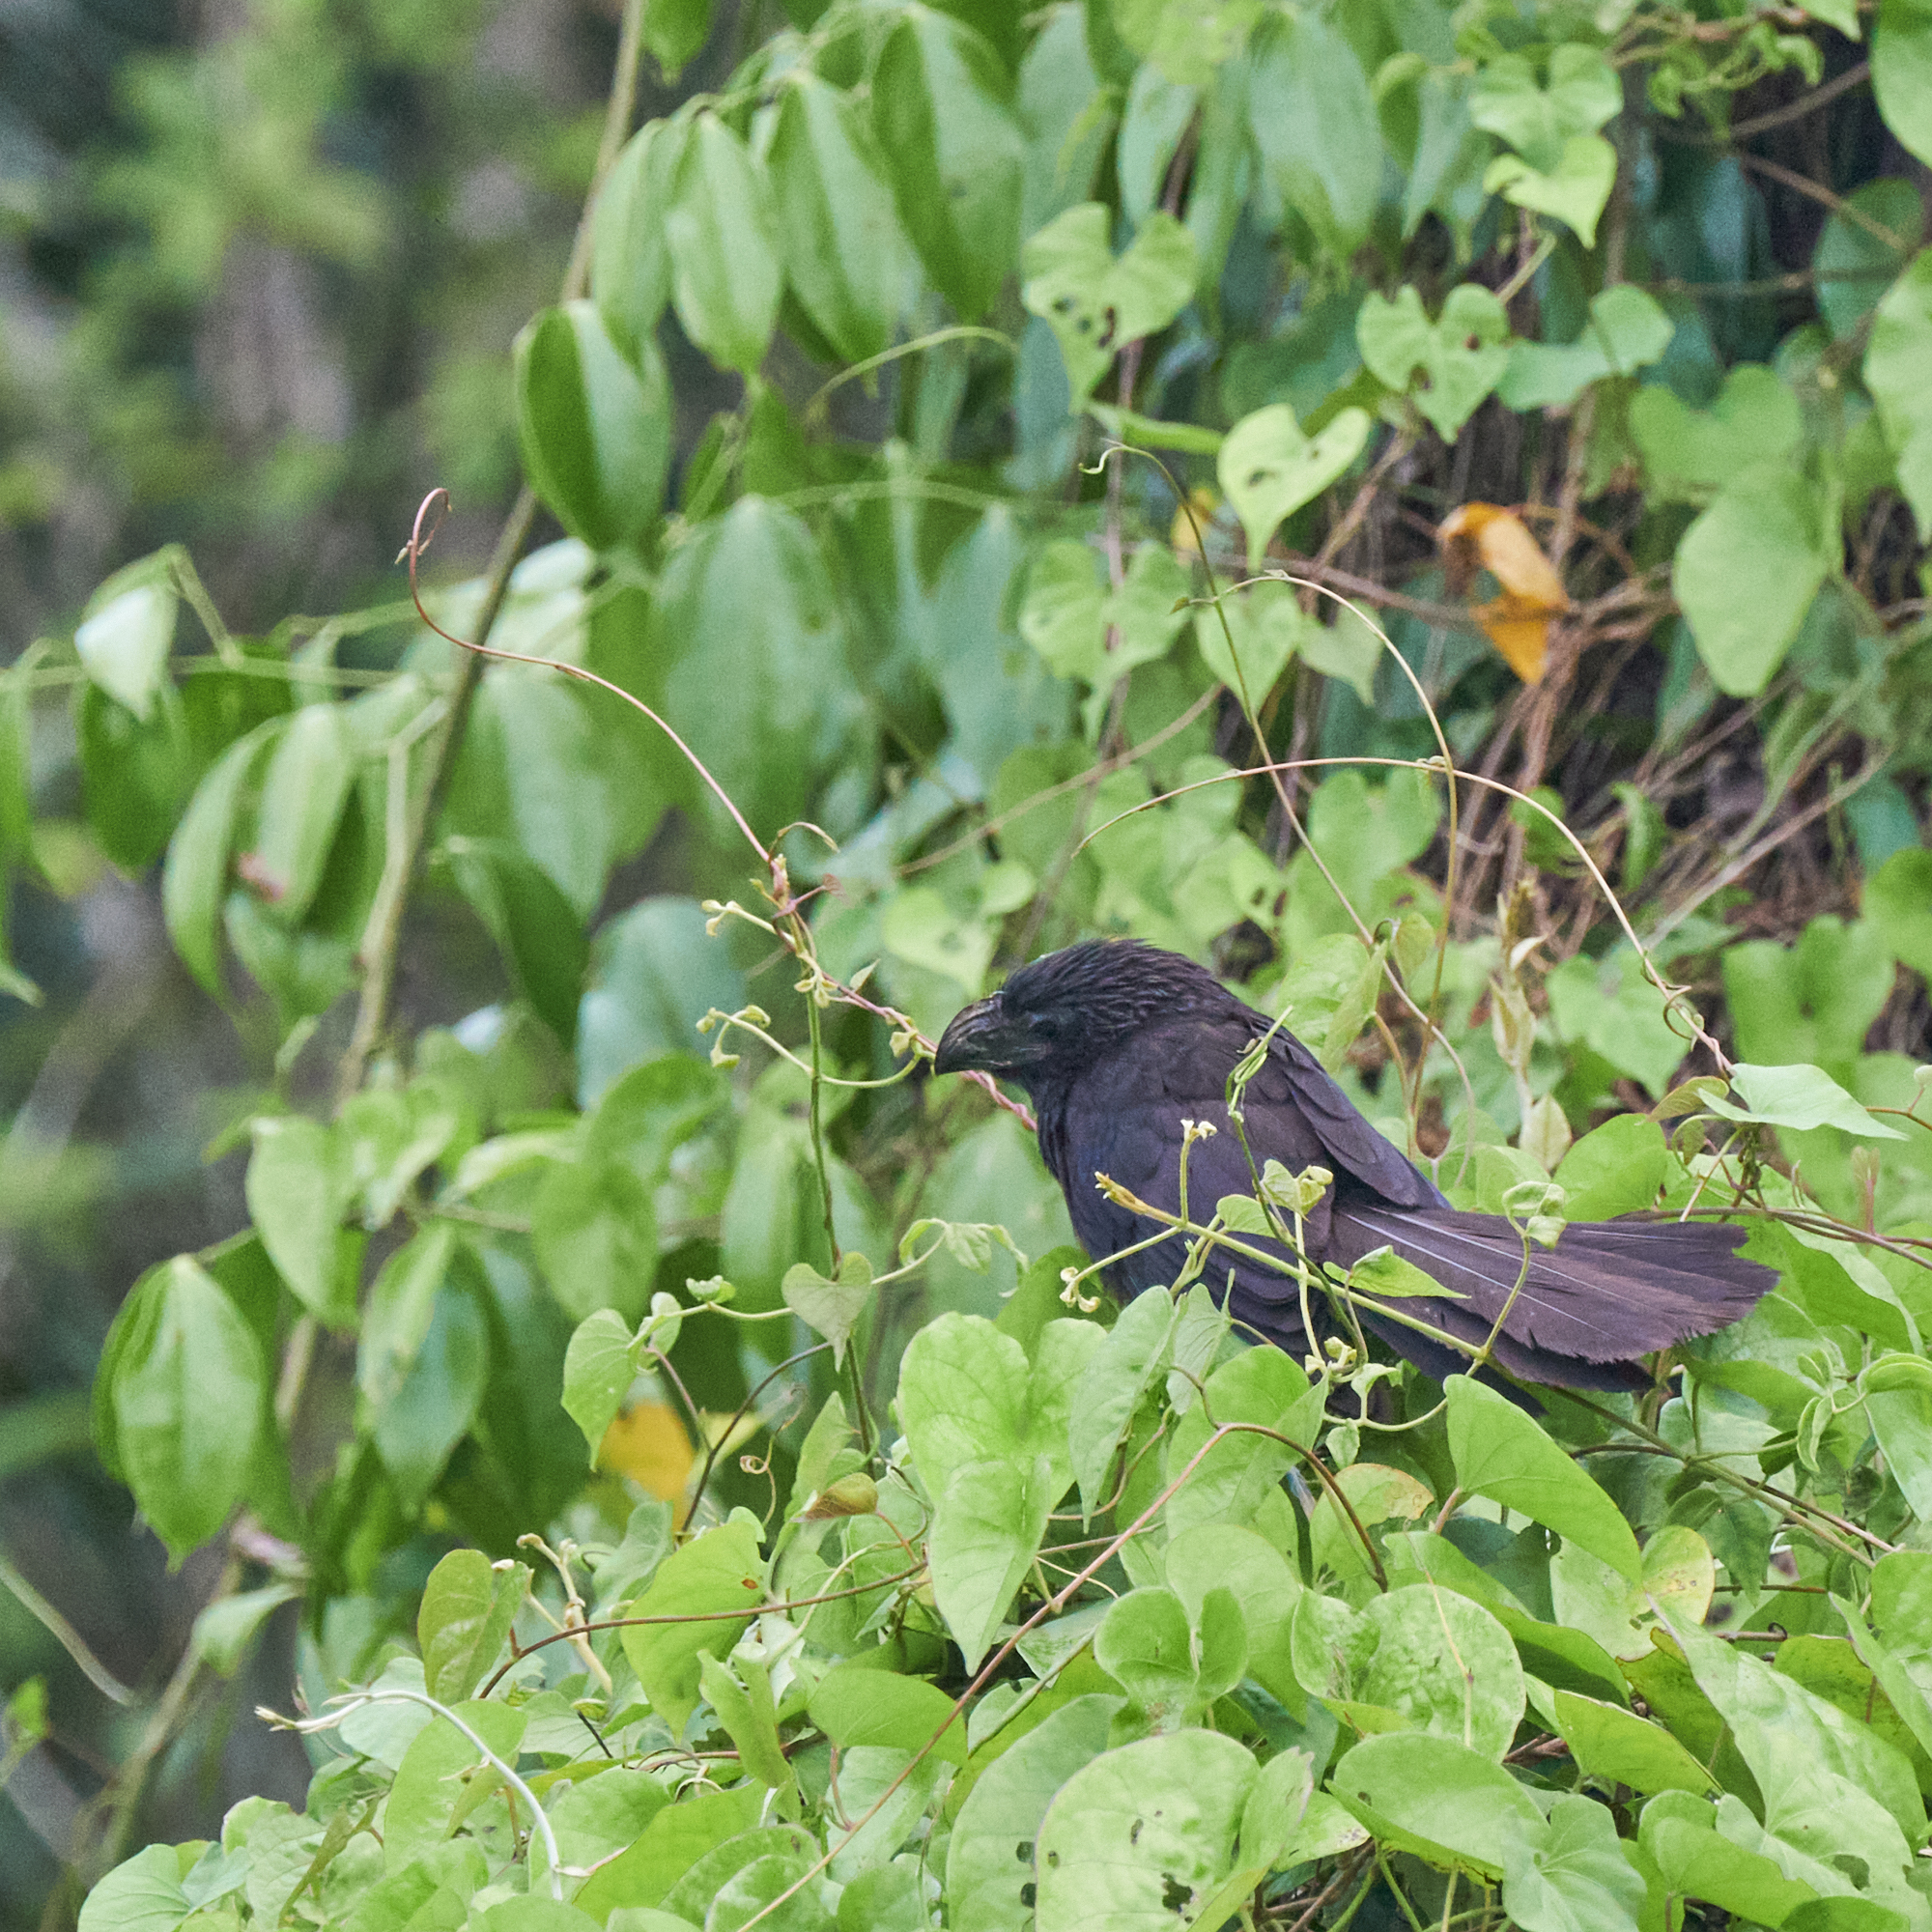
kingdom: Animalia
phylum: Chordata
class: Aves
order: Cuculiformes
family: Cuculidae
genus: Crotophaga
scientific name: Crotophaga sulcirostris
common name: Groove-billed ani
